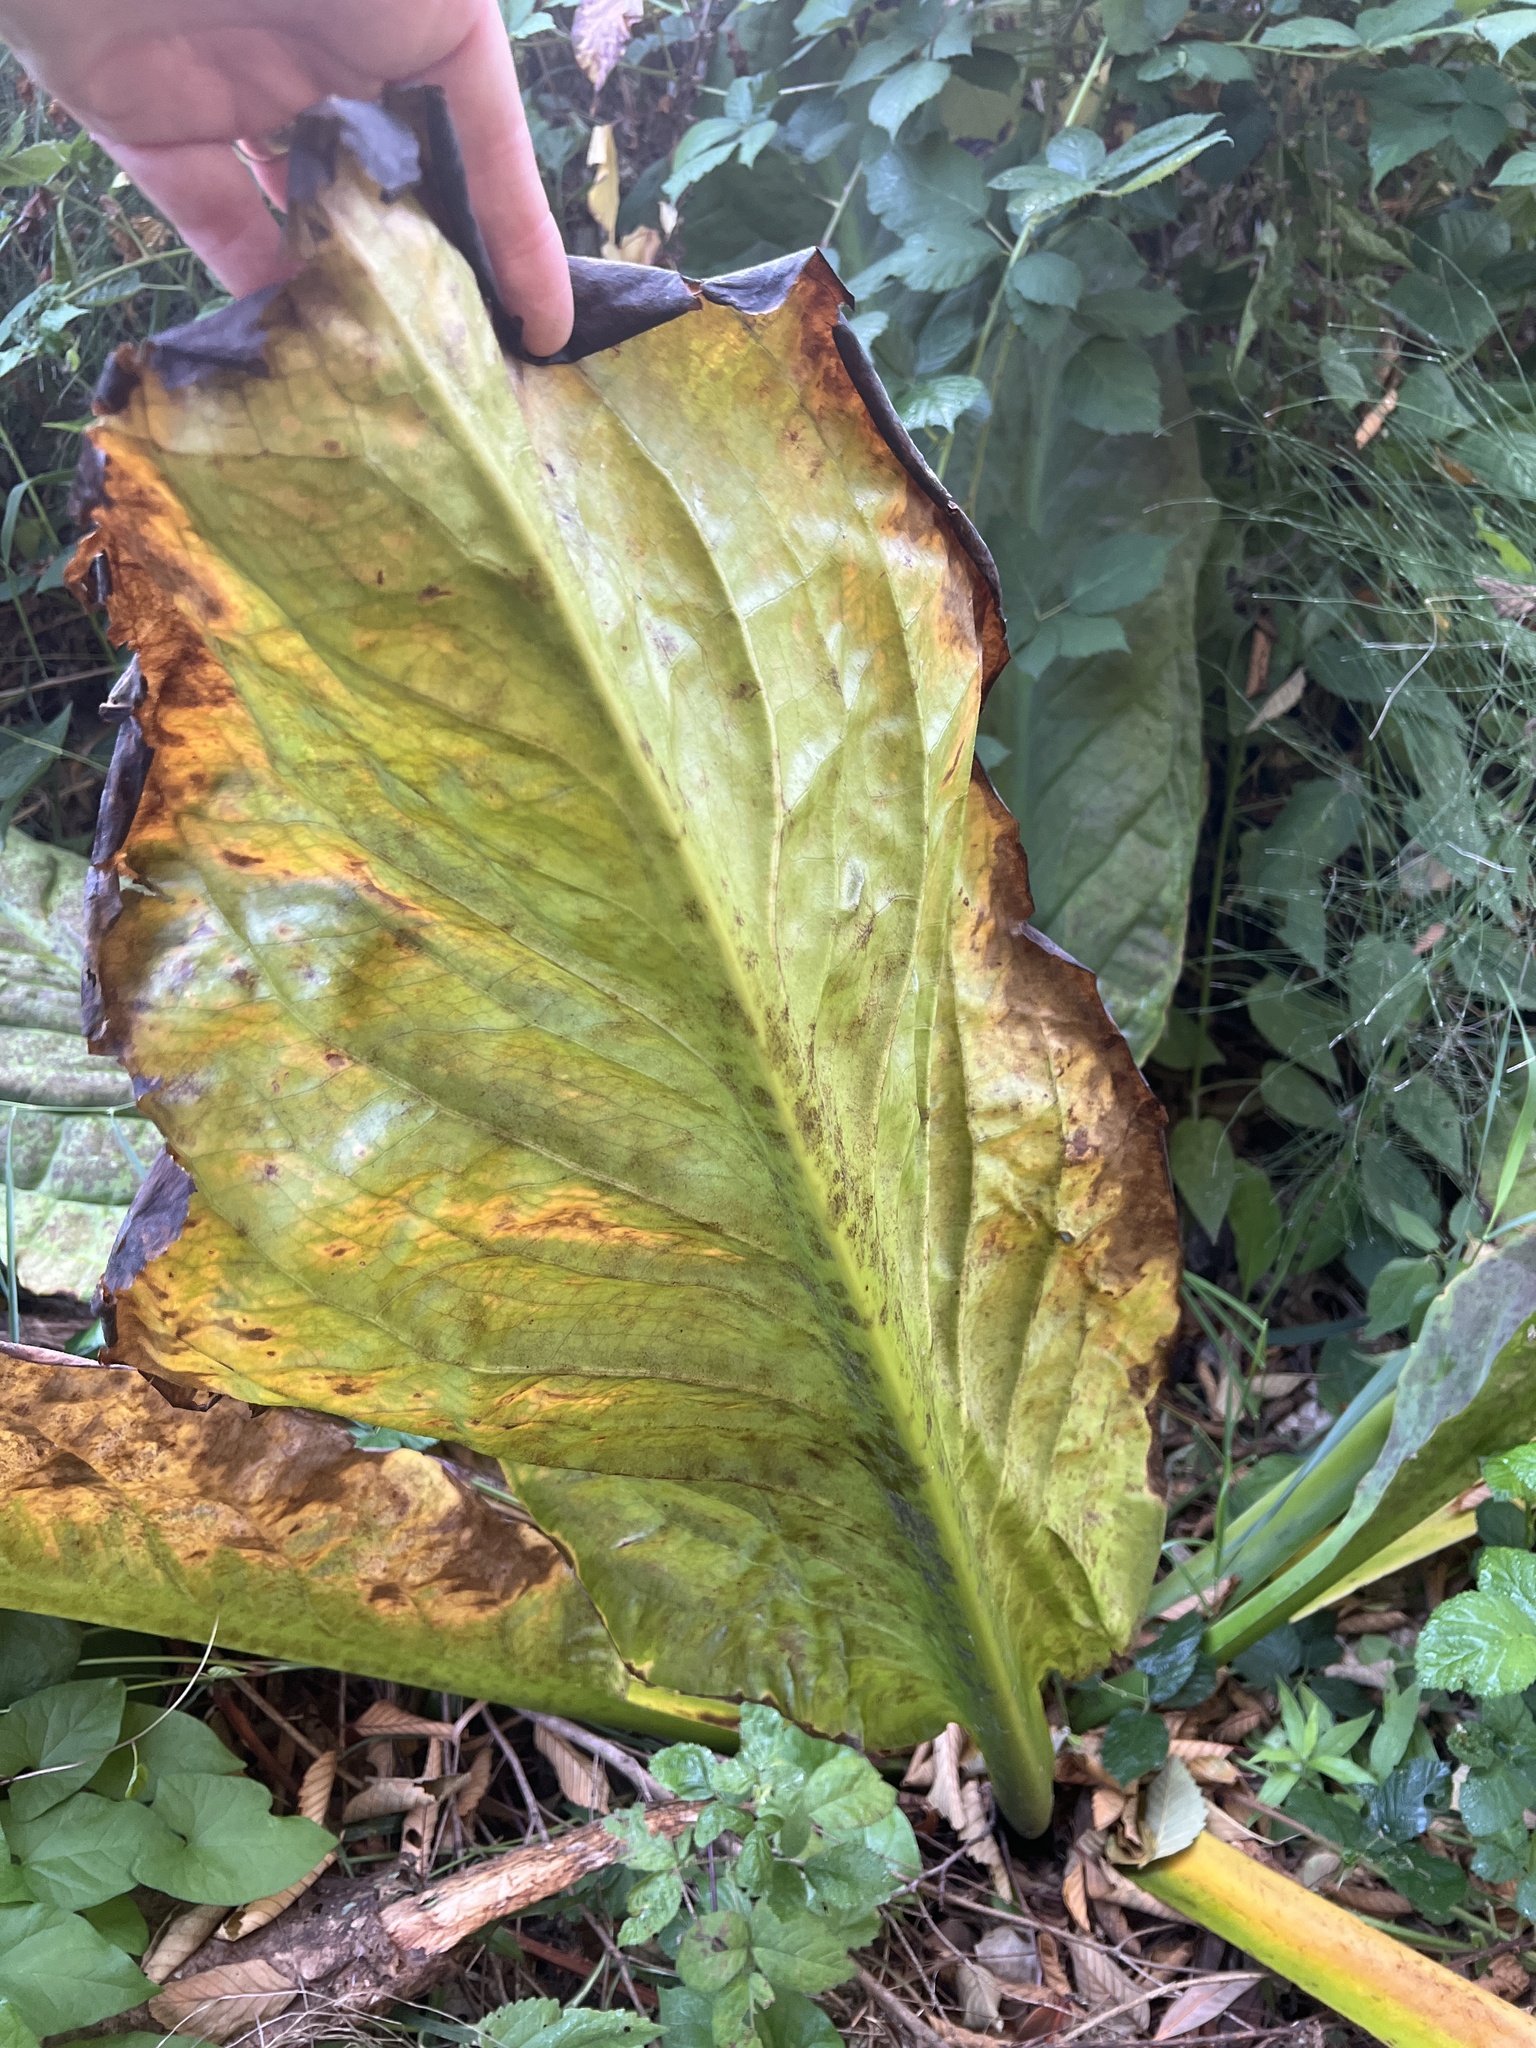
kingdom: Plantae
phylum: Tracheophyta
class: Liliopsida
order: Alismatales
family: Araceae
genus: Lysichiton
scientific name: Lysichiton americanus
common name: American skunk cabbage
